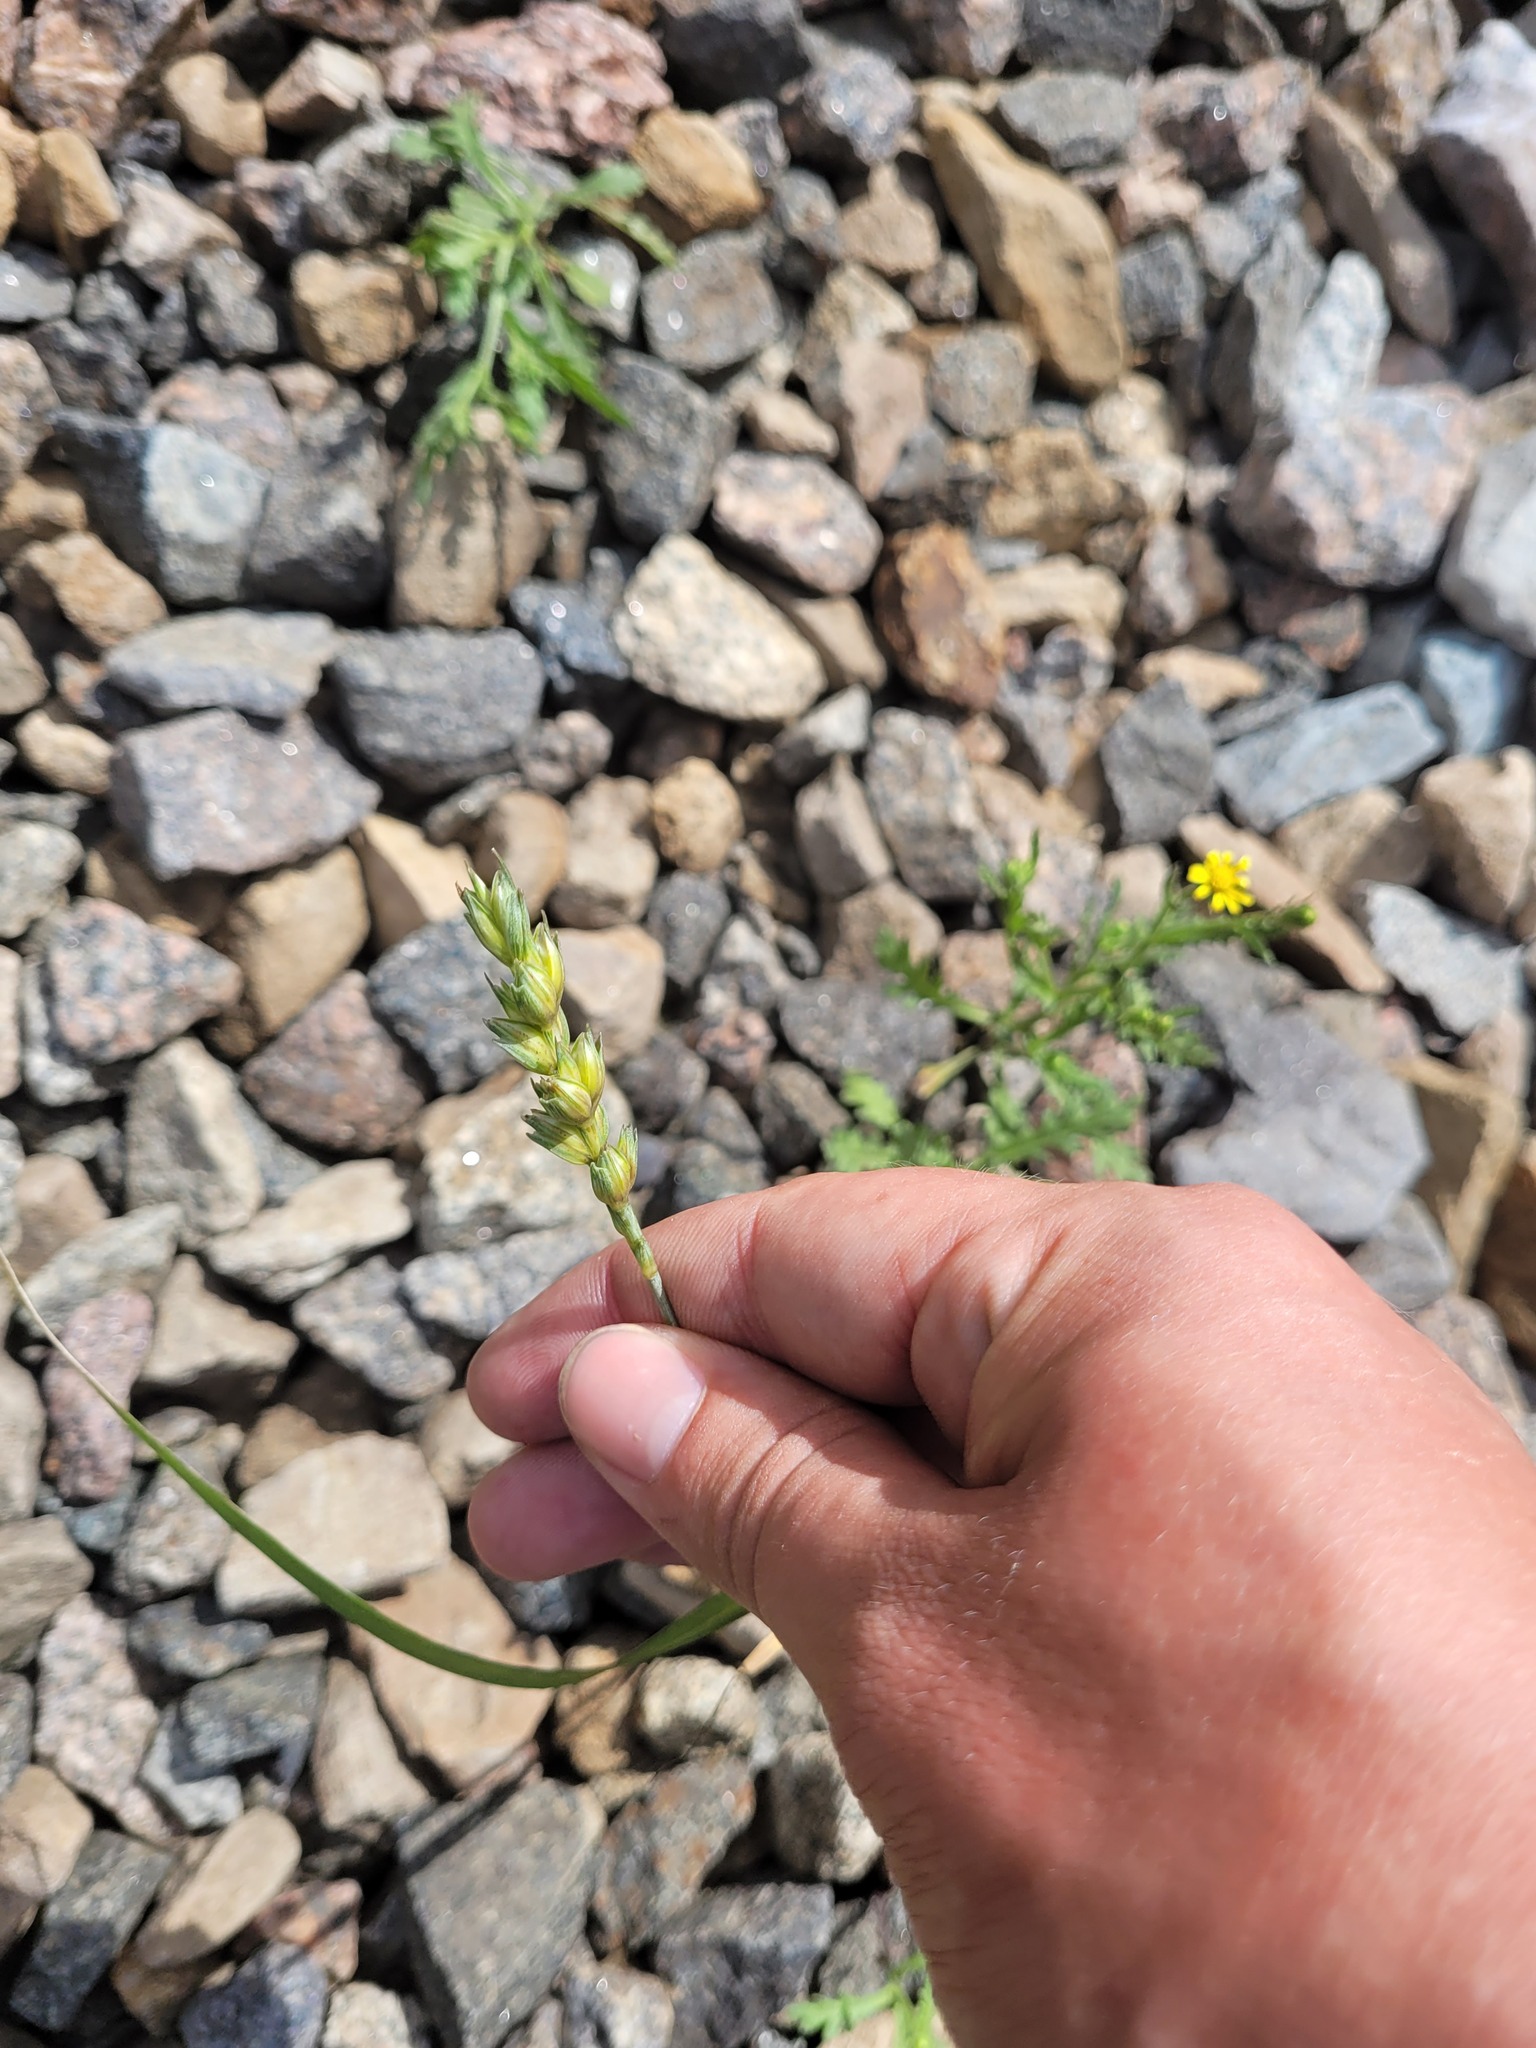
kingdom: Plantae
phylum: Tracheophyta
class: Liliopsida
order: Poales
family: Poaceae
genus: Triticum
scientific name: Triticum aestivum
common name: Common wheat
